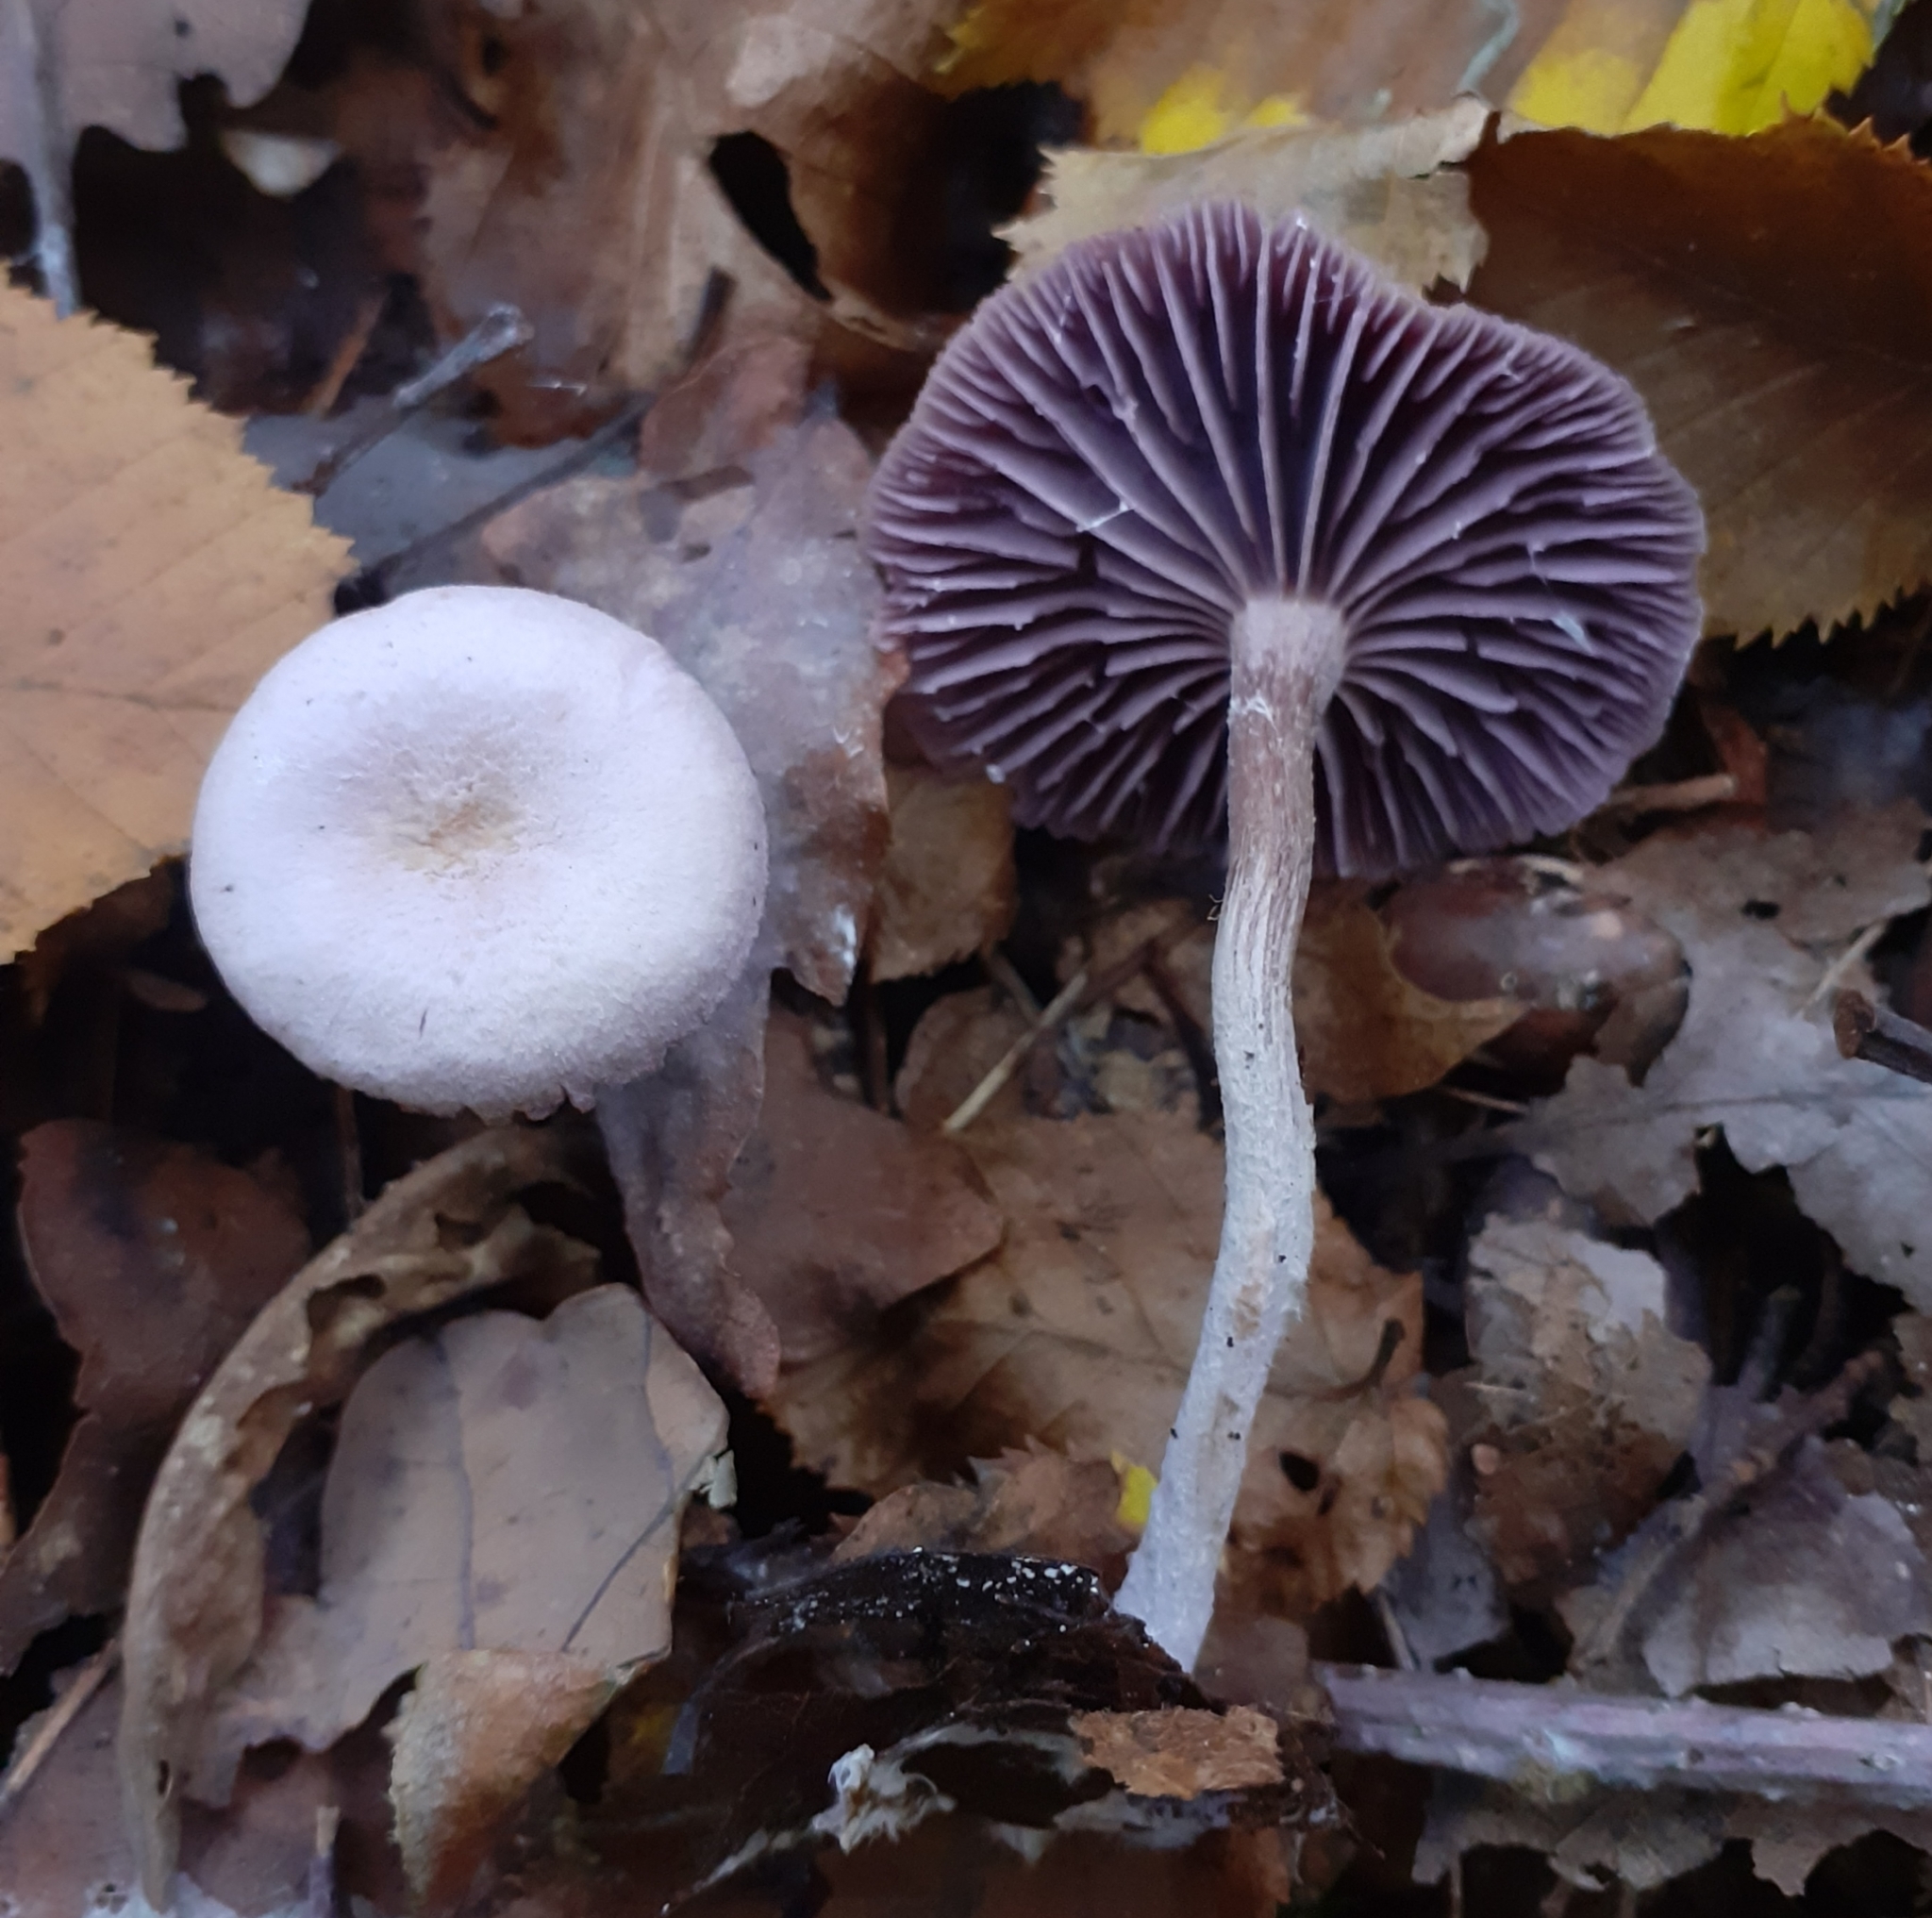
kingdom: Fungi
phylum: Basidiomycota
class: Agaricomycetes
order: Agaricales
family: Hydnangiaceae
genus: Laccaria
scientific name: Laccaria amethystina
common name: Amethyst deceiver
